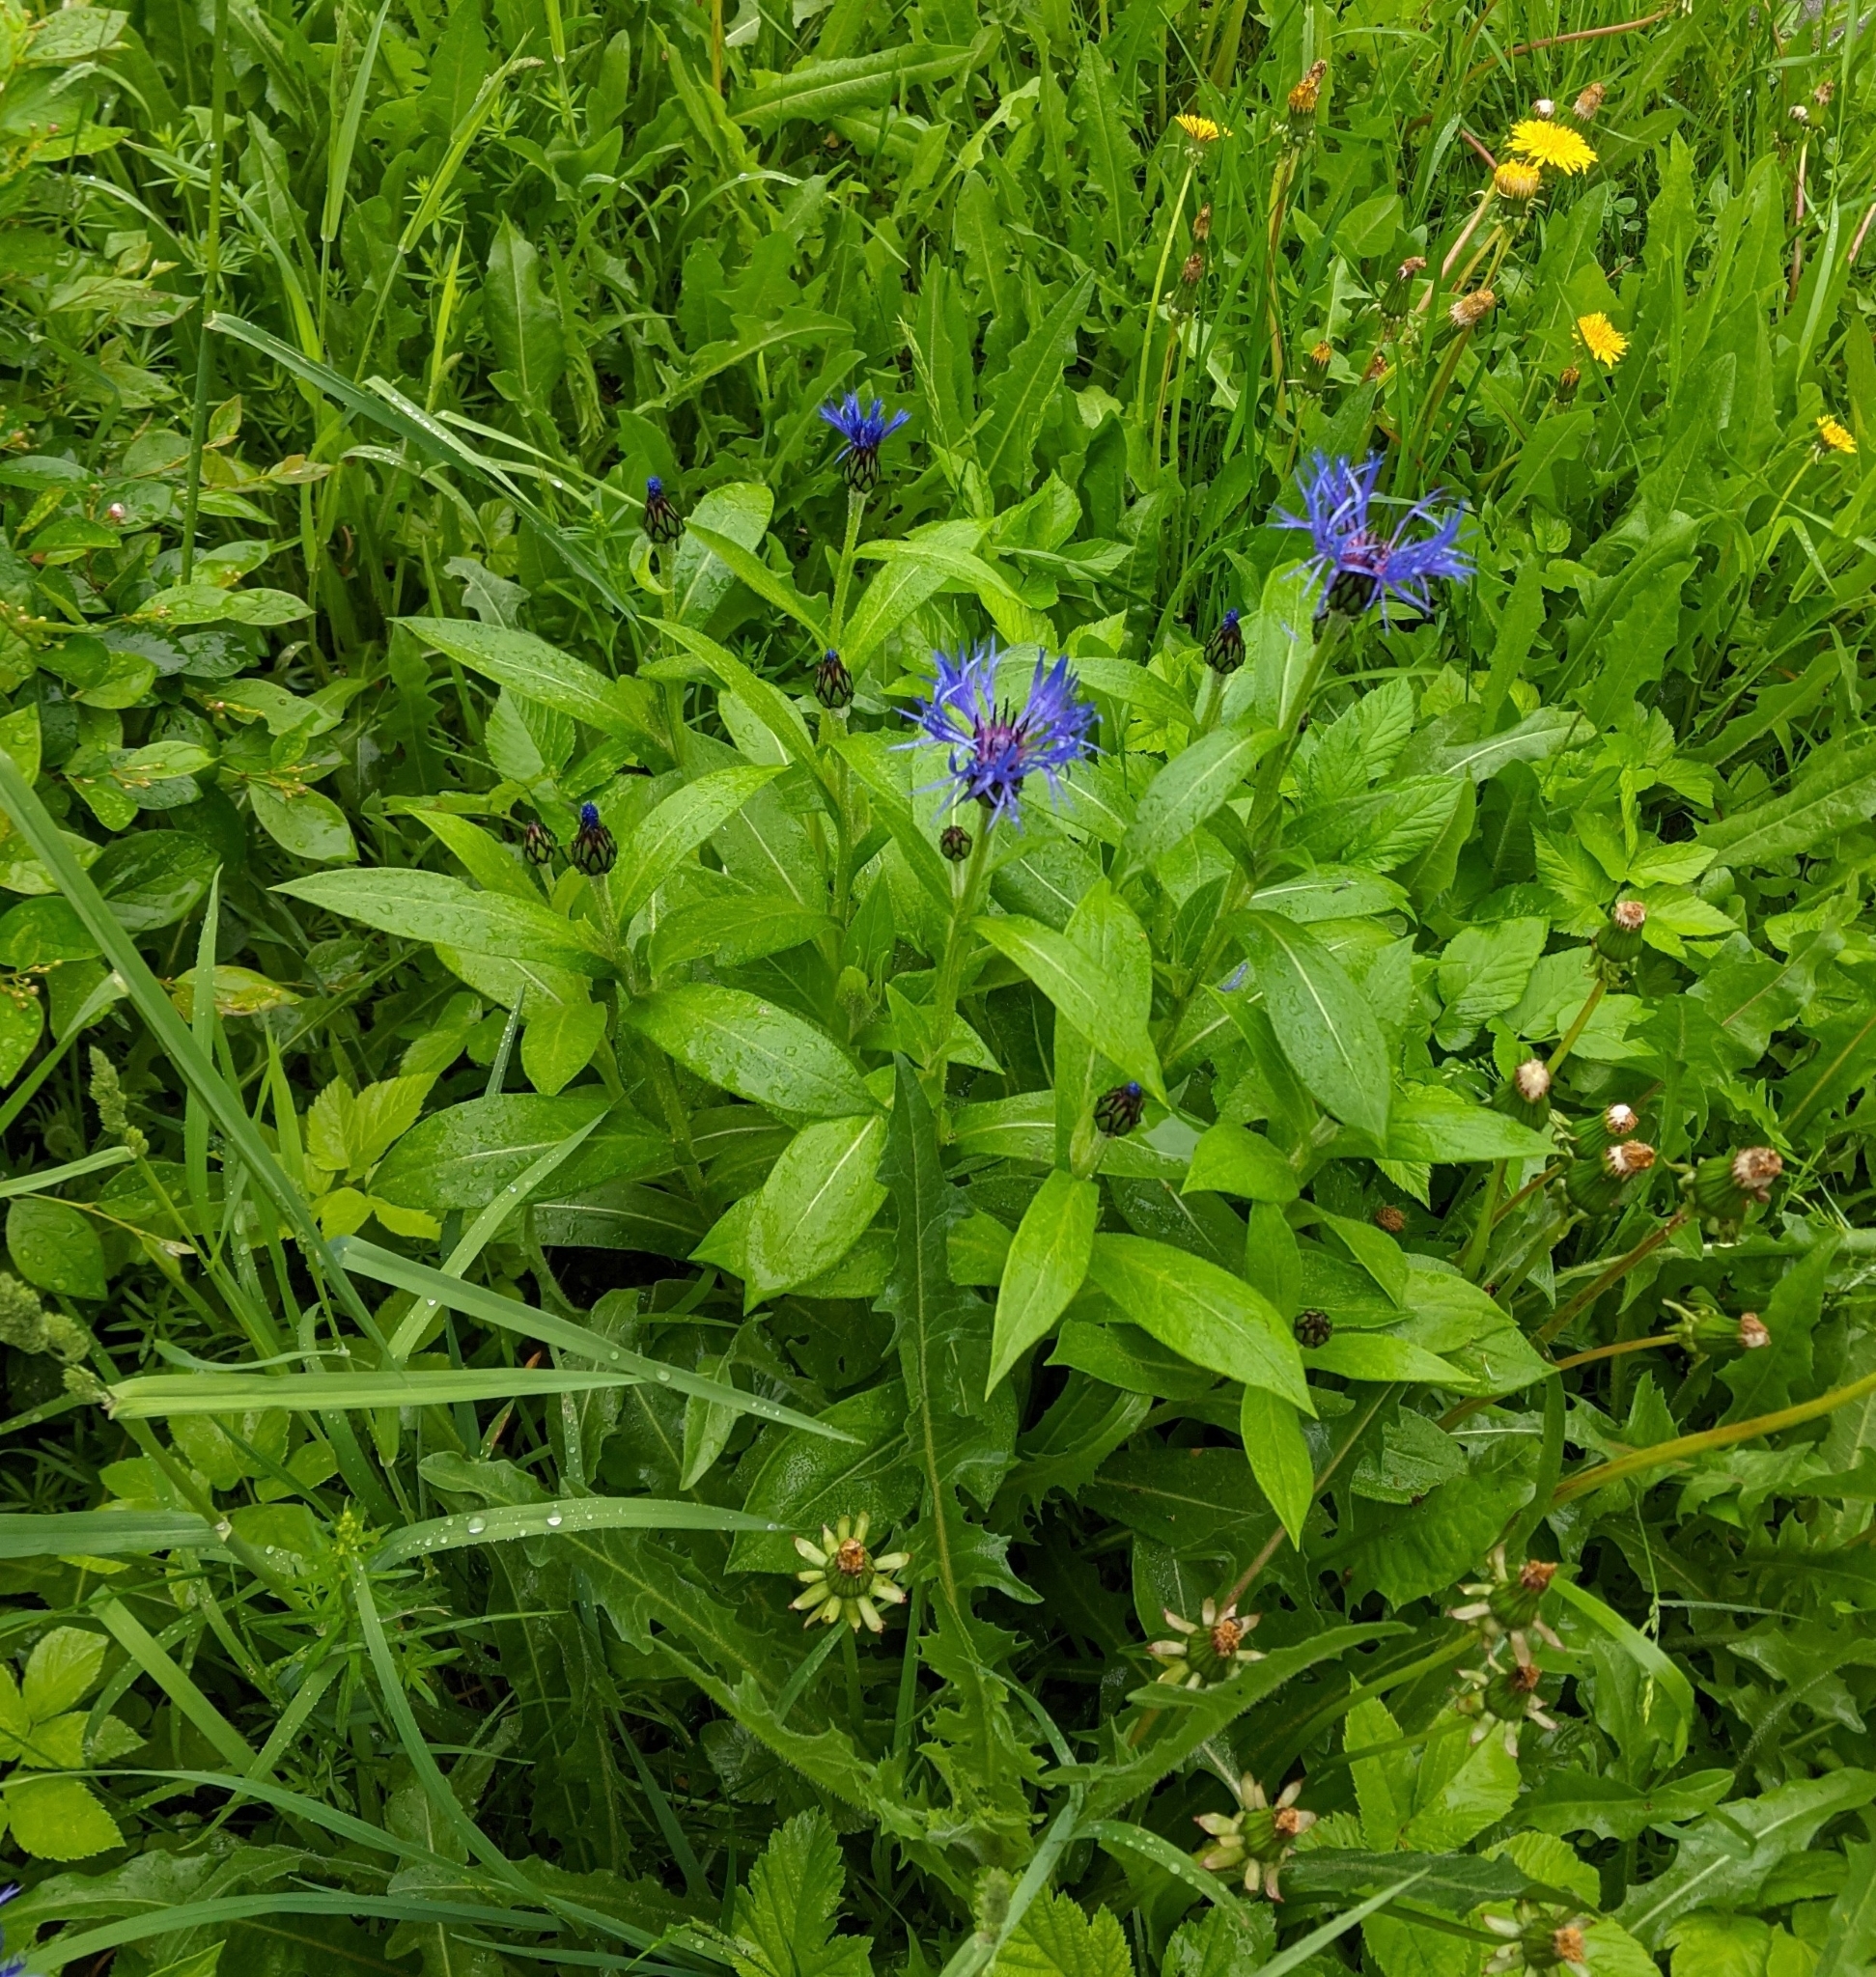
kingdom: Plantae
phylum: Tracheophyta
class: Magnoliopsida
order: Asterales
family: Asteraceae
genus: Centaurea
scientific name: Centaurea montana
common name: Perennial cornflower
